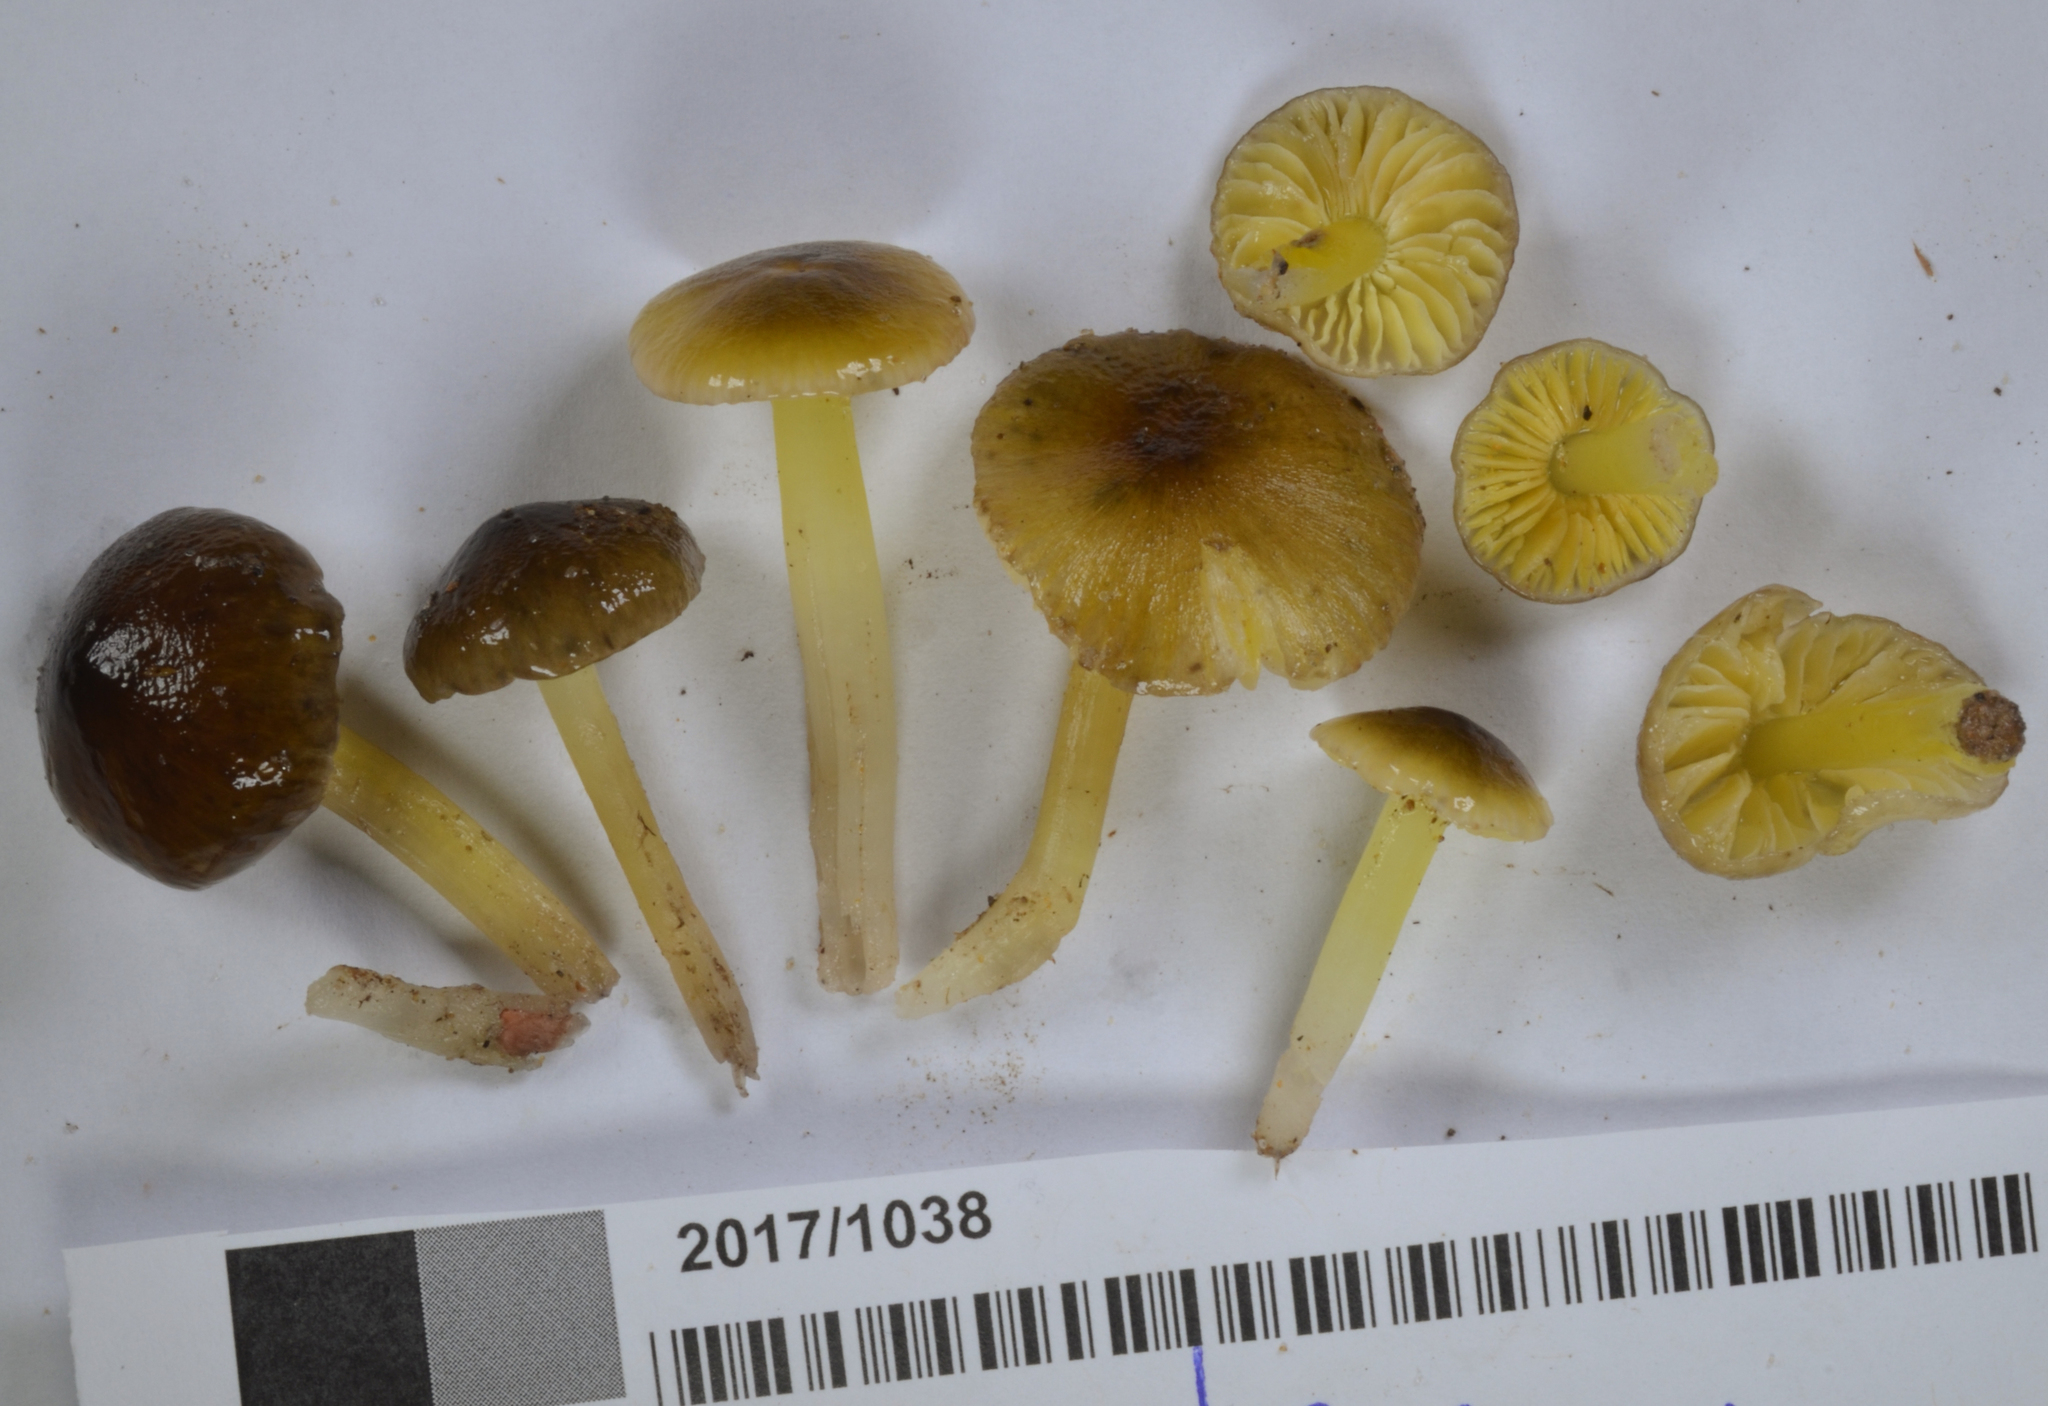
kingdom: Fungi
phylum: Basidiomycota
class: Agaricomycetes
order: Agaricales
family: Hygrophoraceae
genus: Hygrocybe
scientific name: Hygrocybe fuliginata
